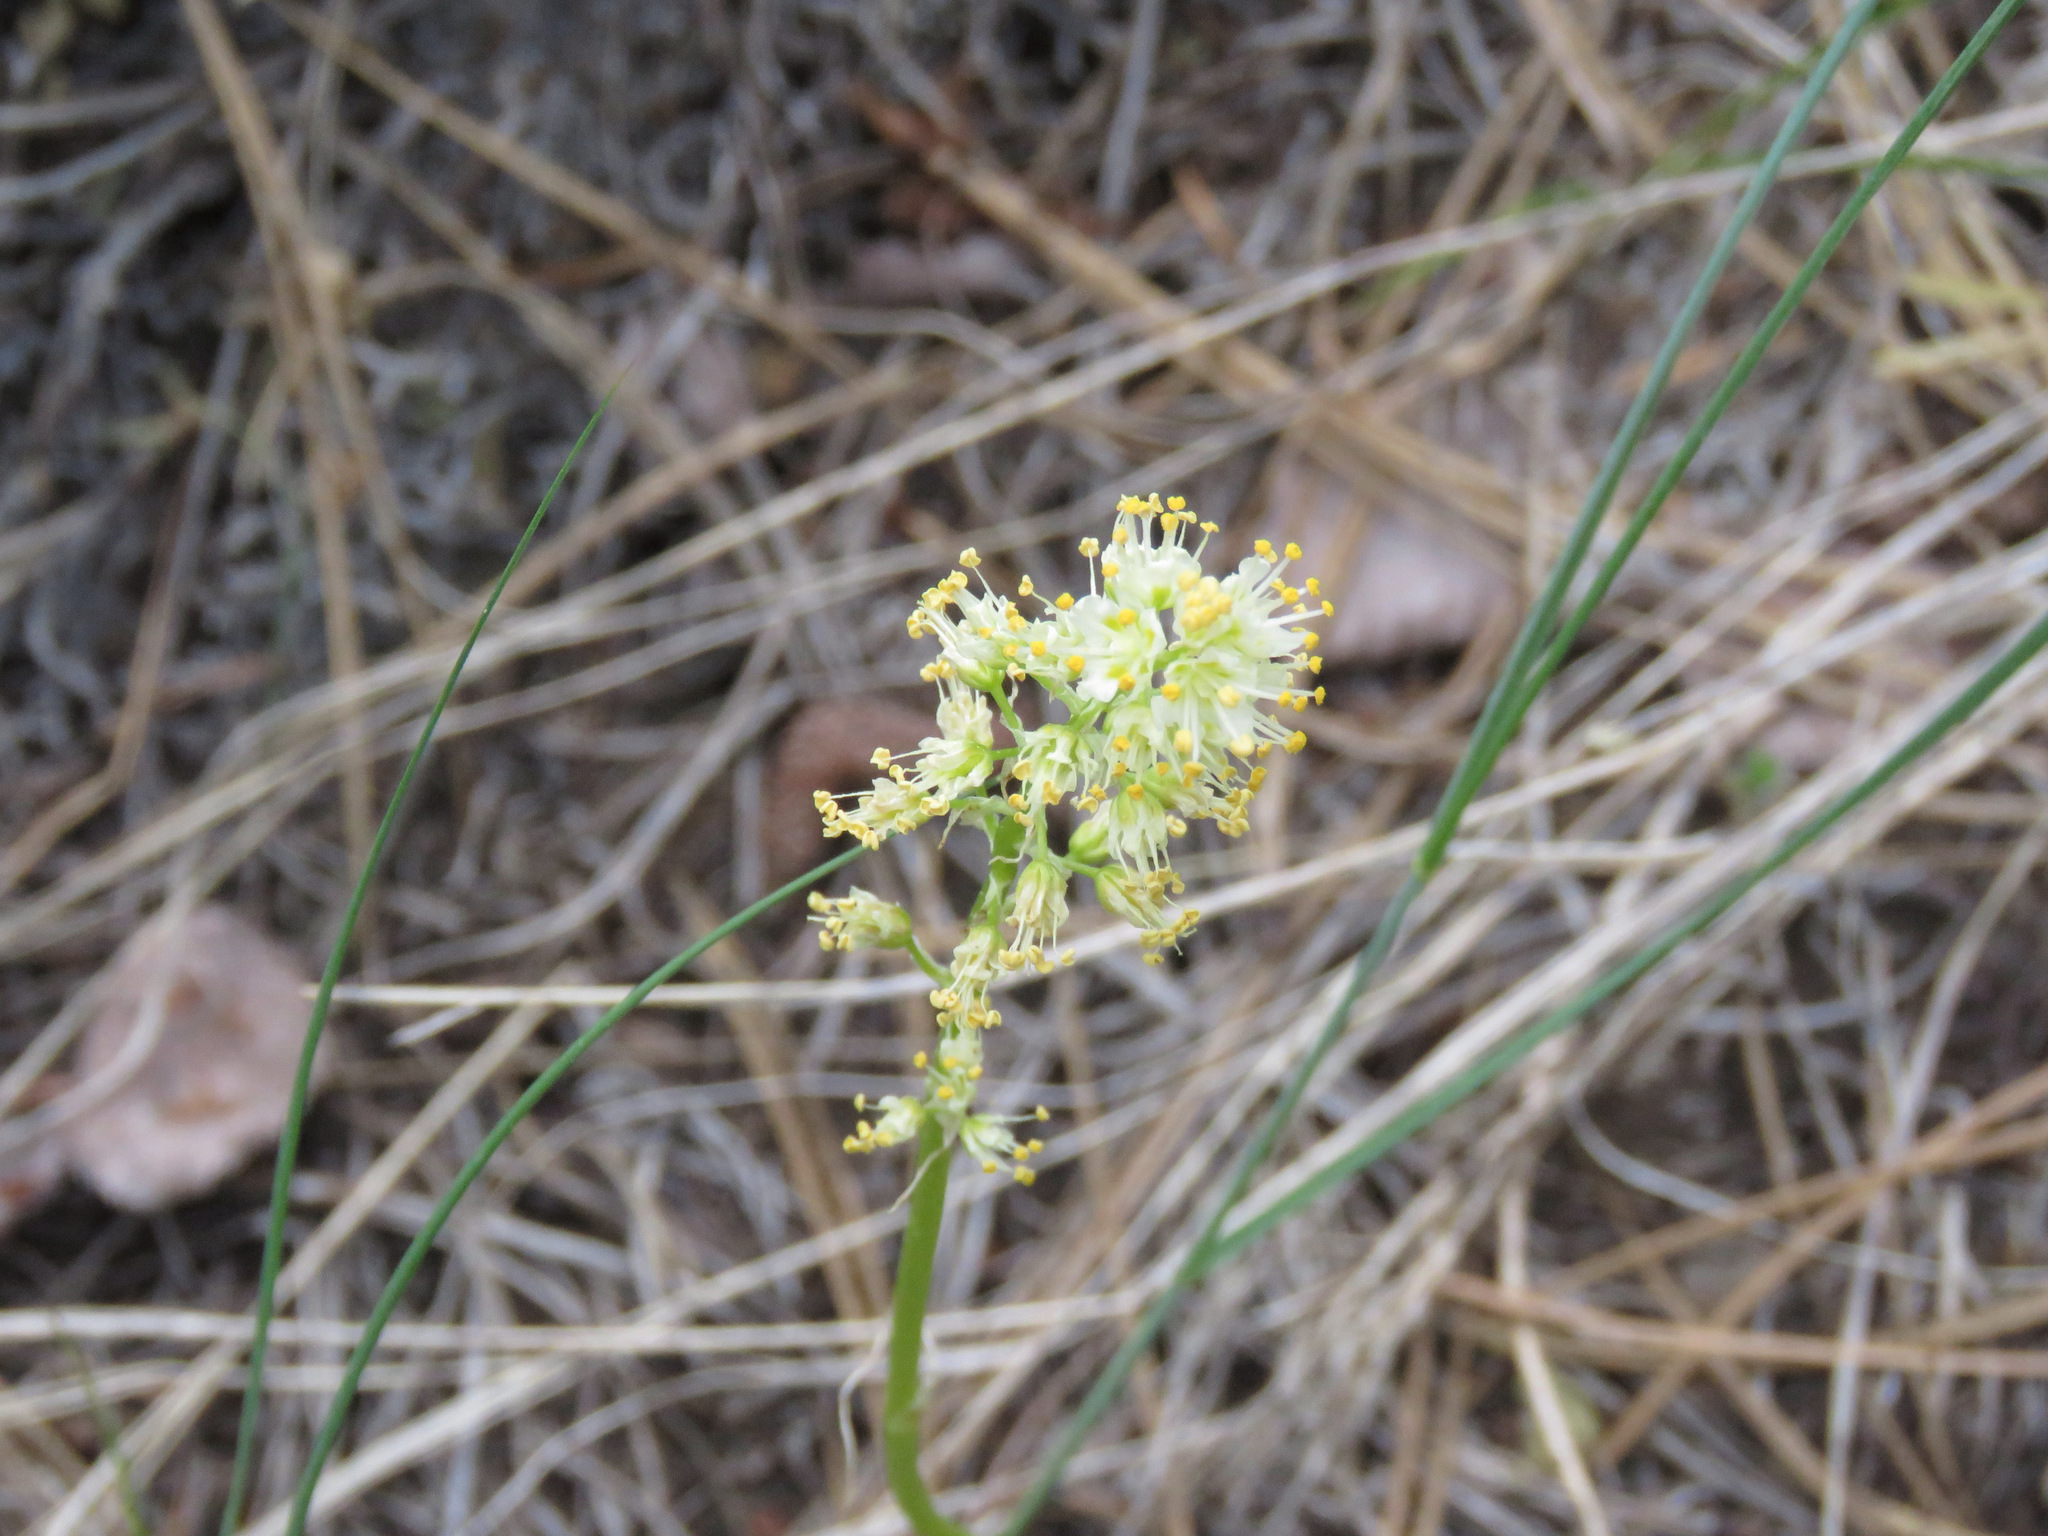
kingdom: Plantae
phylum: Tracheophyta
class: Liliopsida
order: Liliales
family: Melanthiaceae
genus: Toxicoscordion
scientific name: Toxicoscordion venenosum
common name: Meadow death camas
